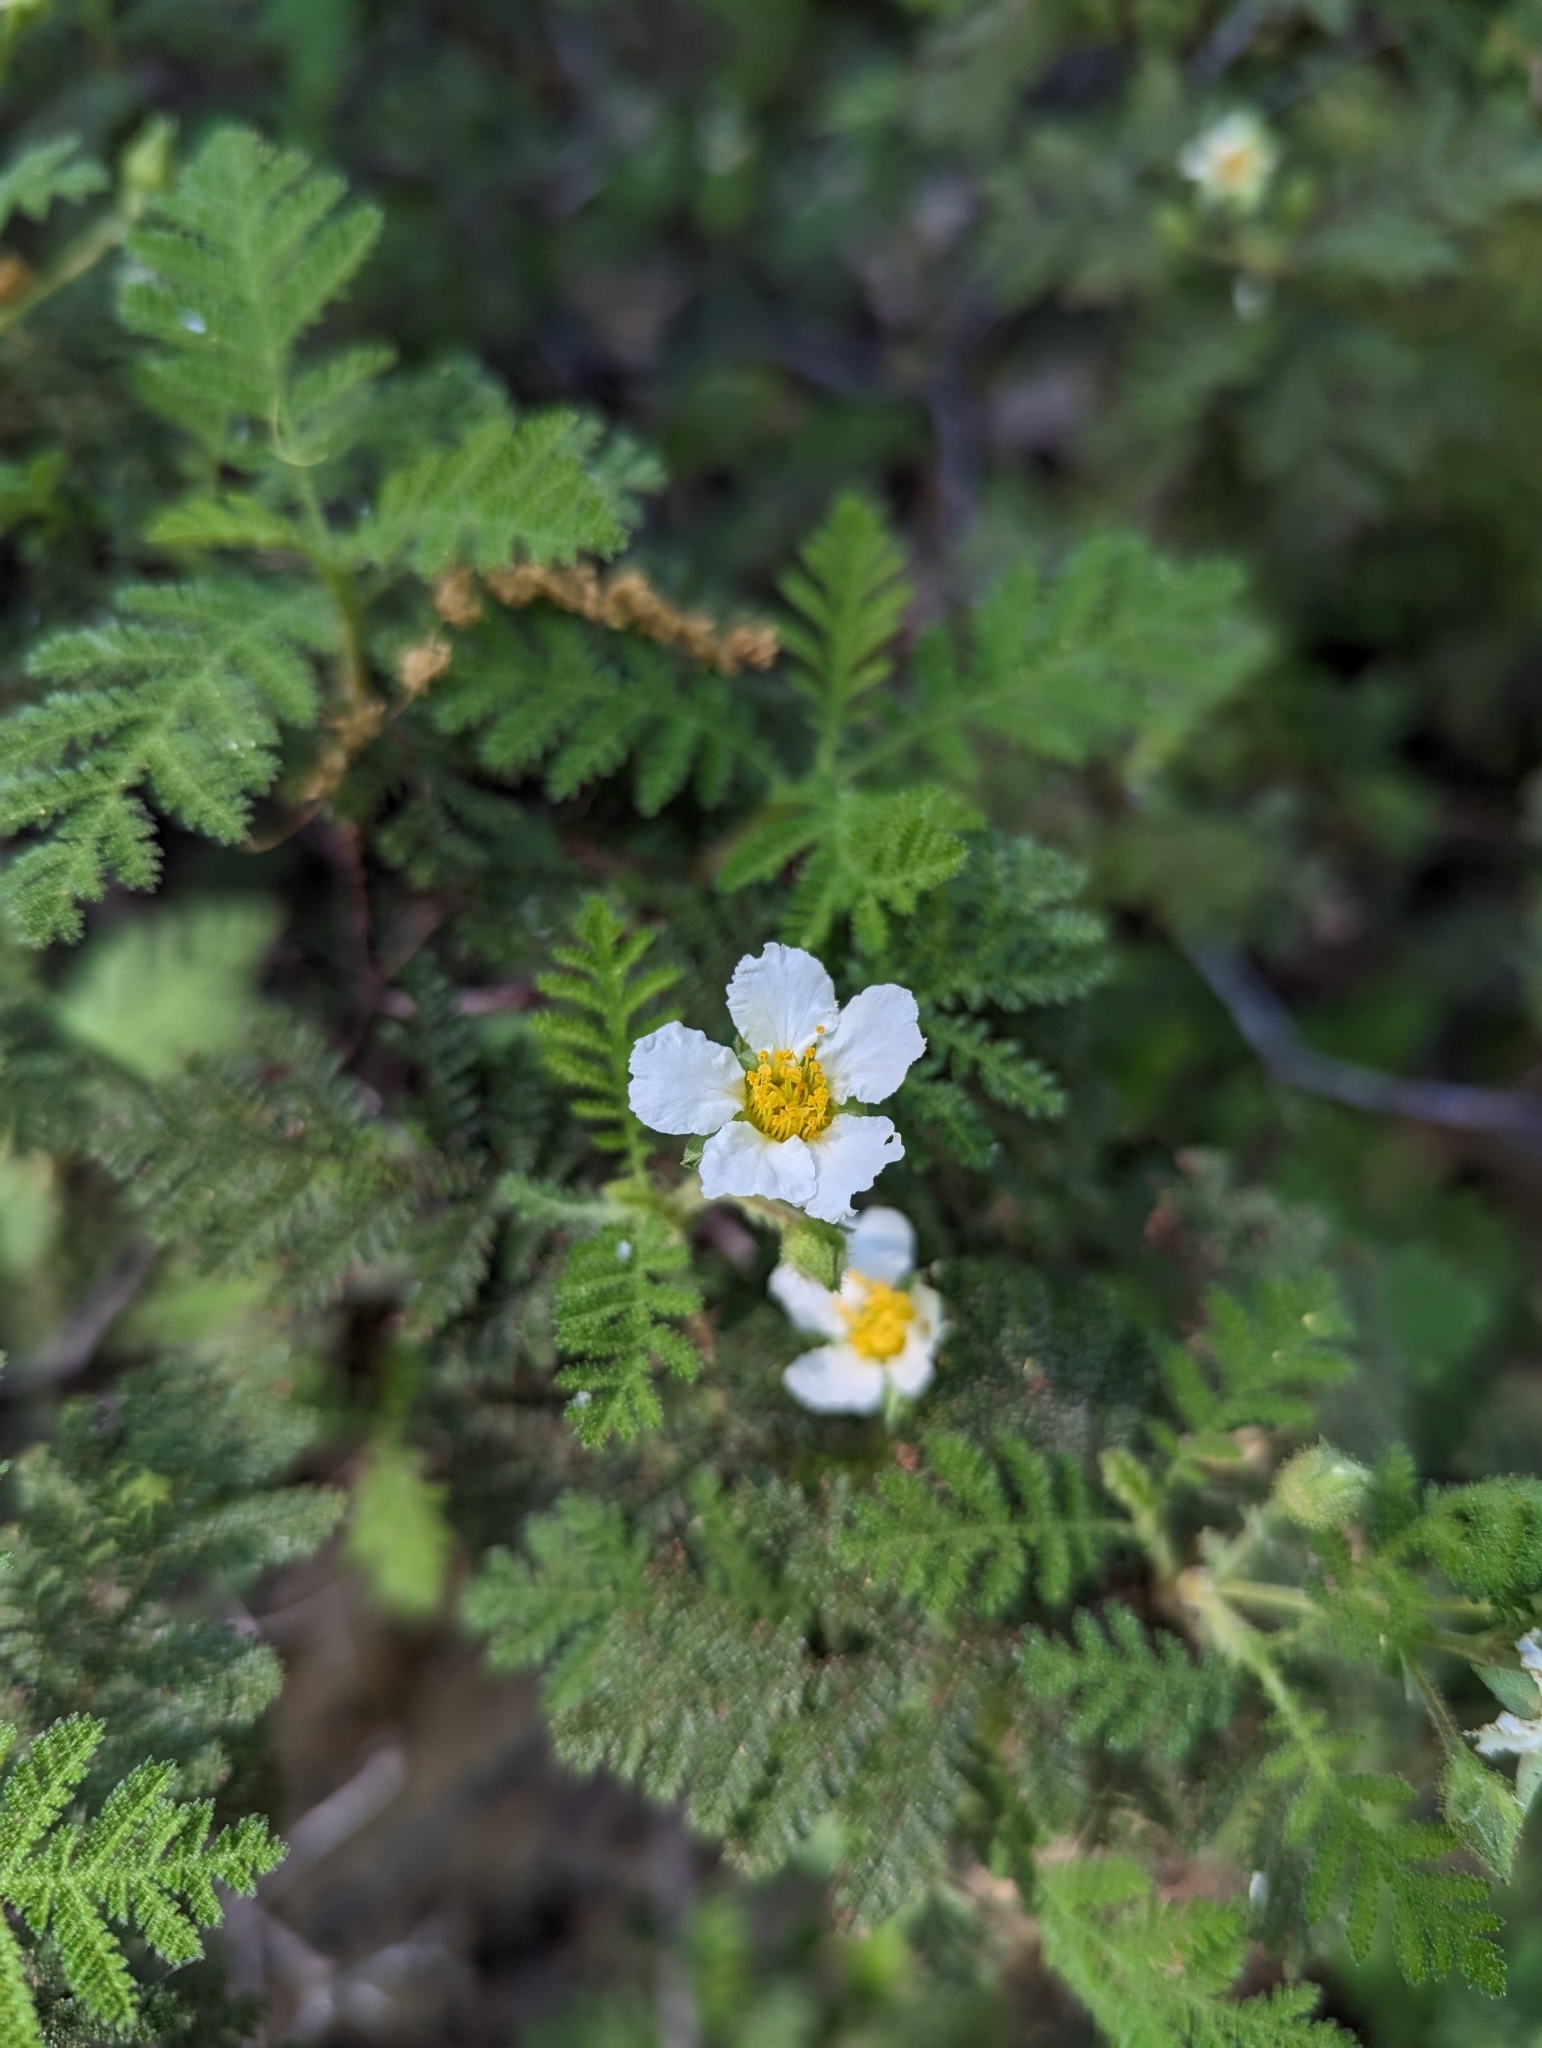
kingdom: Plantae
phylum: Tracheophyta
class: Magnoliopsida
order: Rosales
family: Rosaceae
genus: Chamaebatia
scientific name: Chamaebatia foliolosa
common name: Mountain misery
